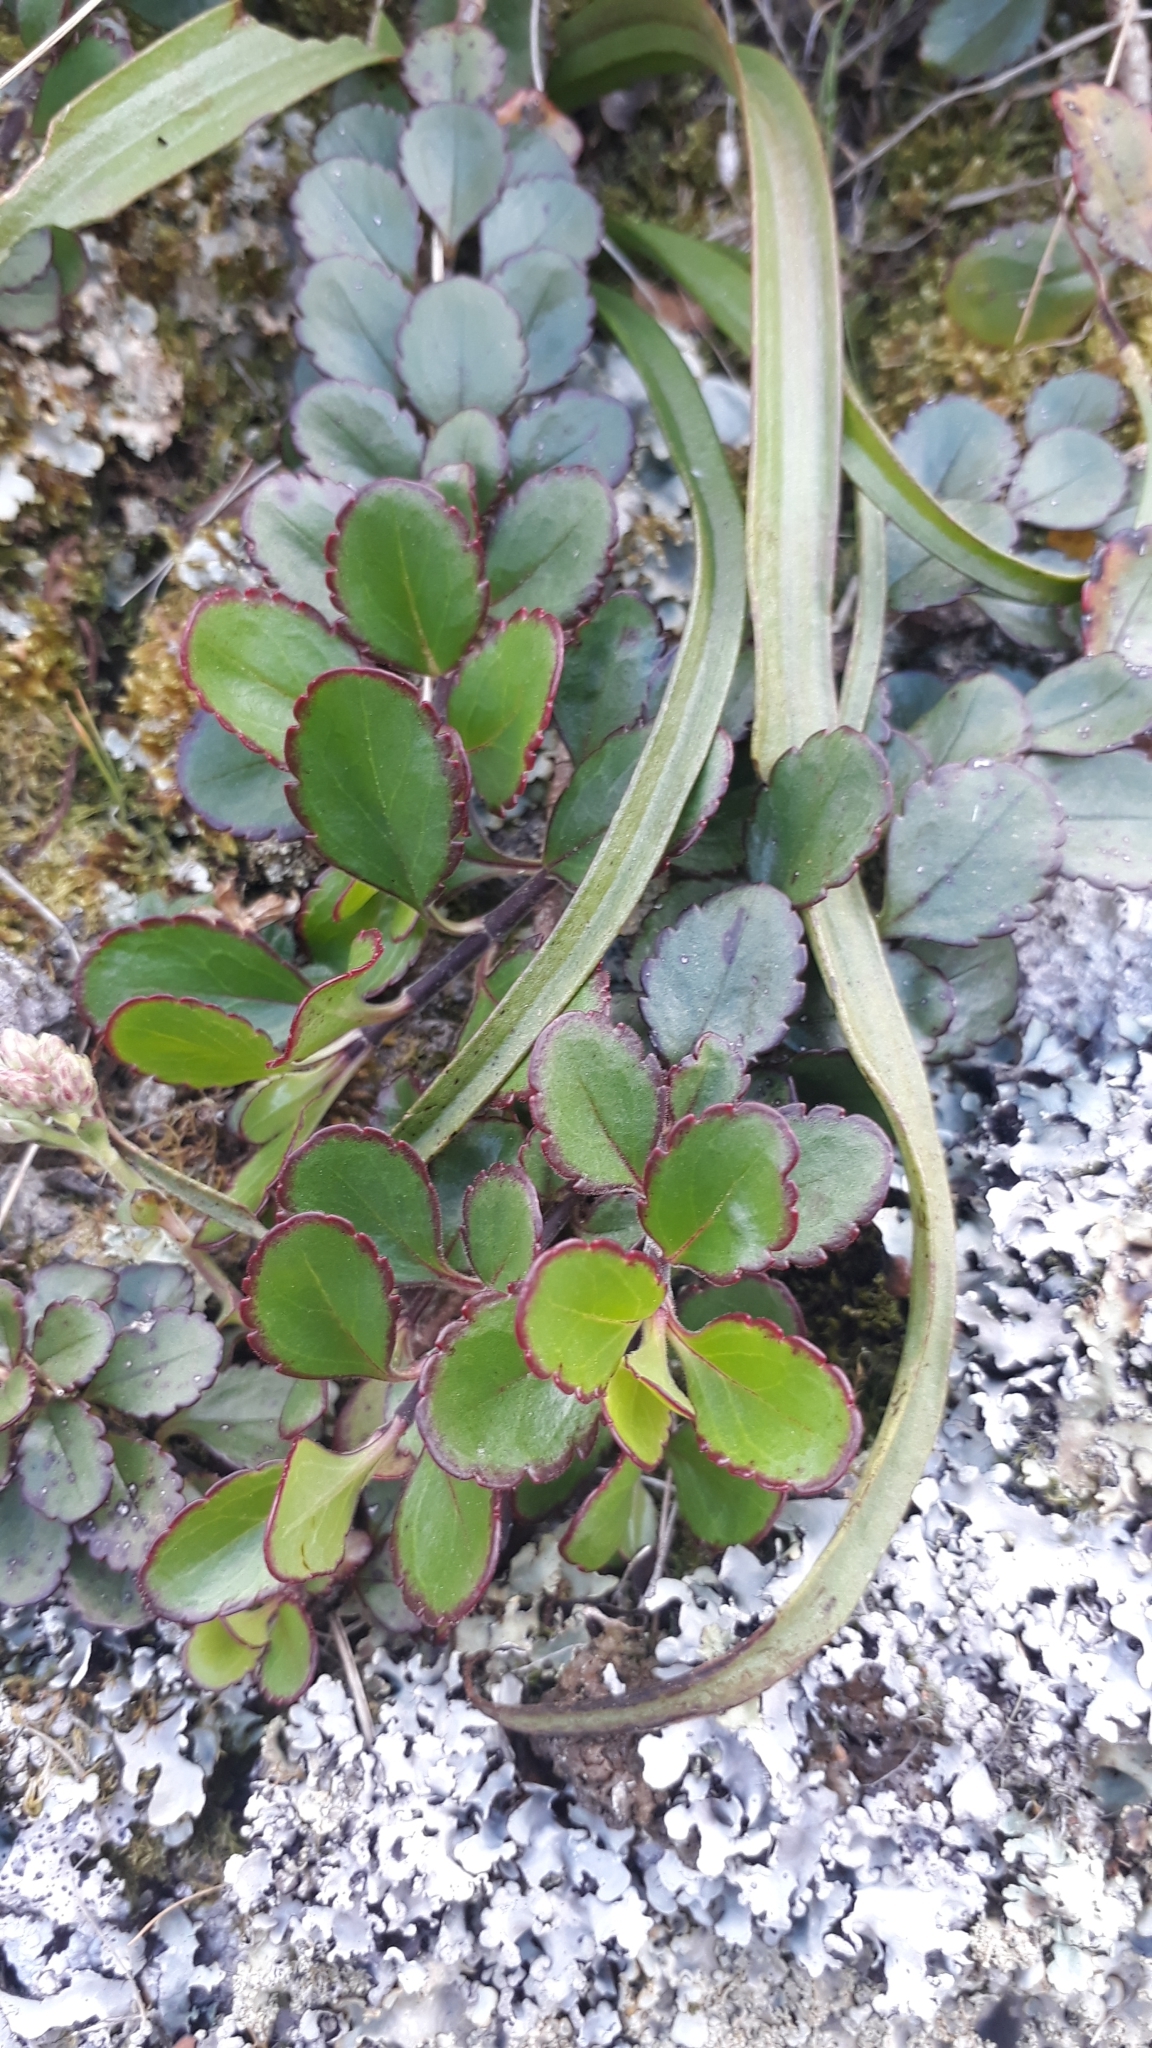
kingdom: Plantae
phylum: Tracheophyta
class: Magnoliopsida
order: Lamiales
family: Plantaginaceae
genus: Veronica
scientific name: Veronica lavaudiana
